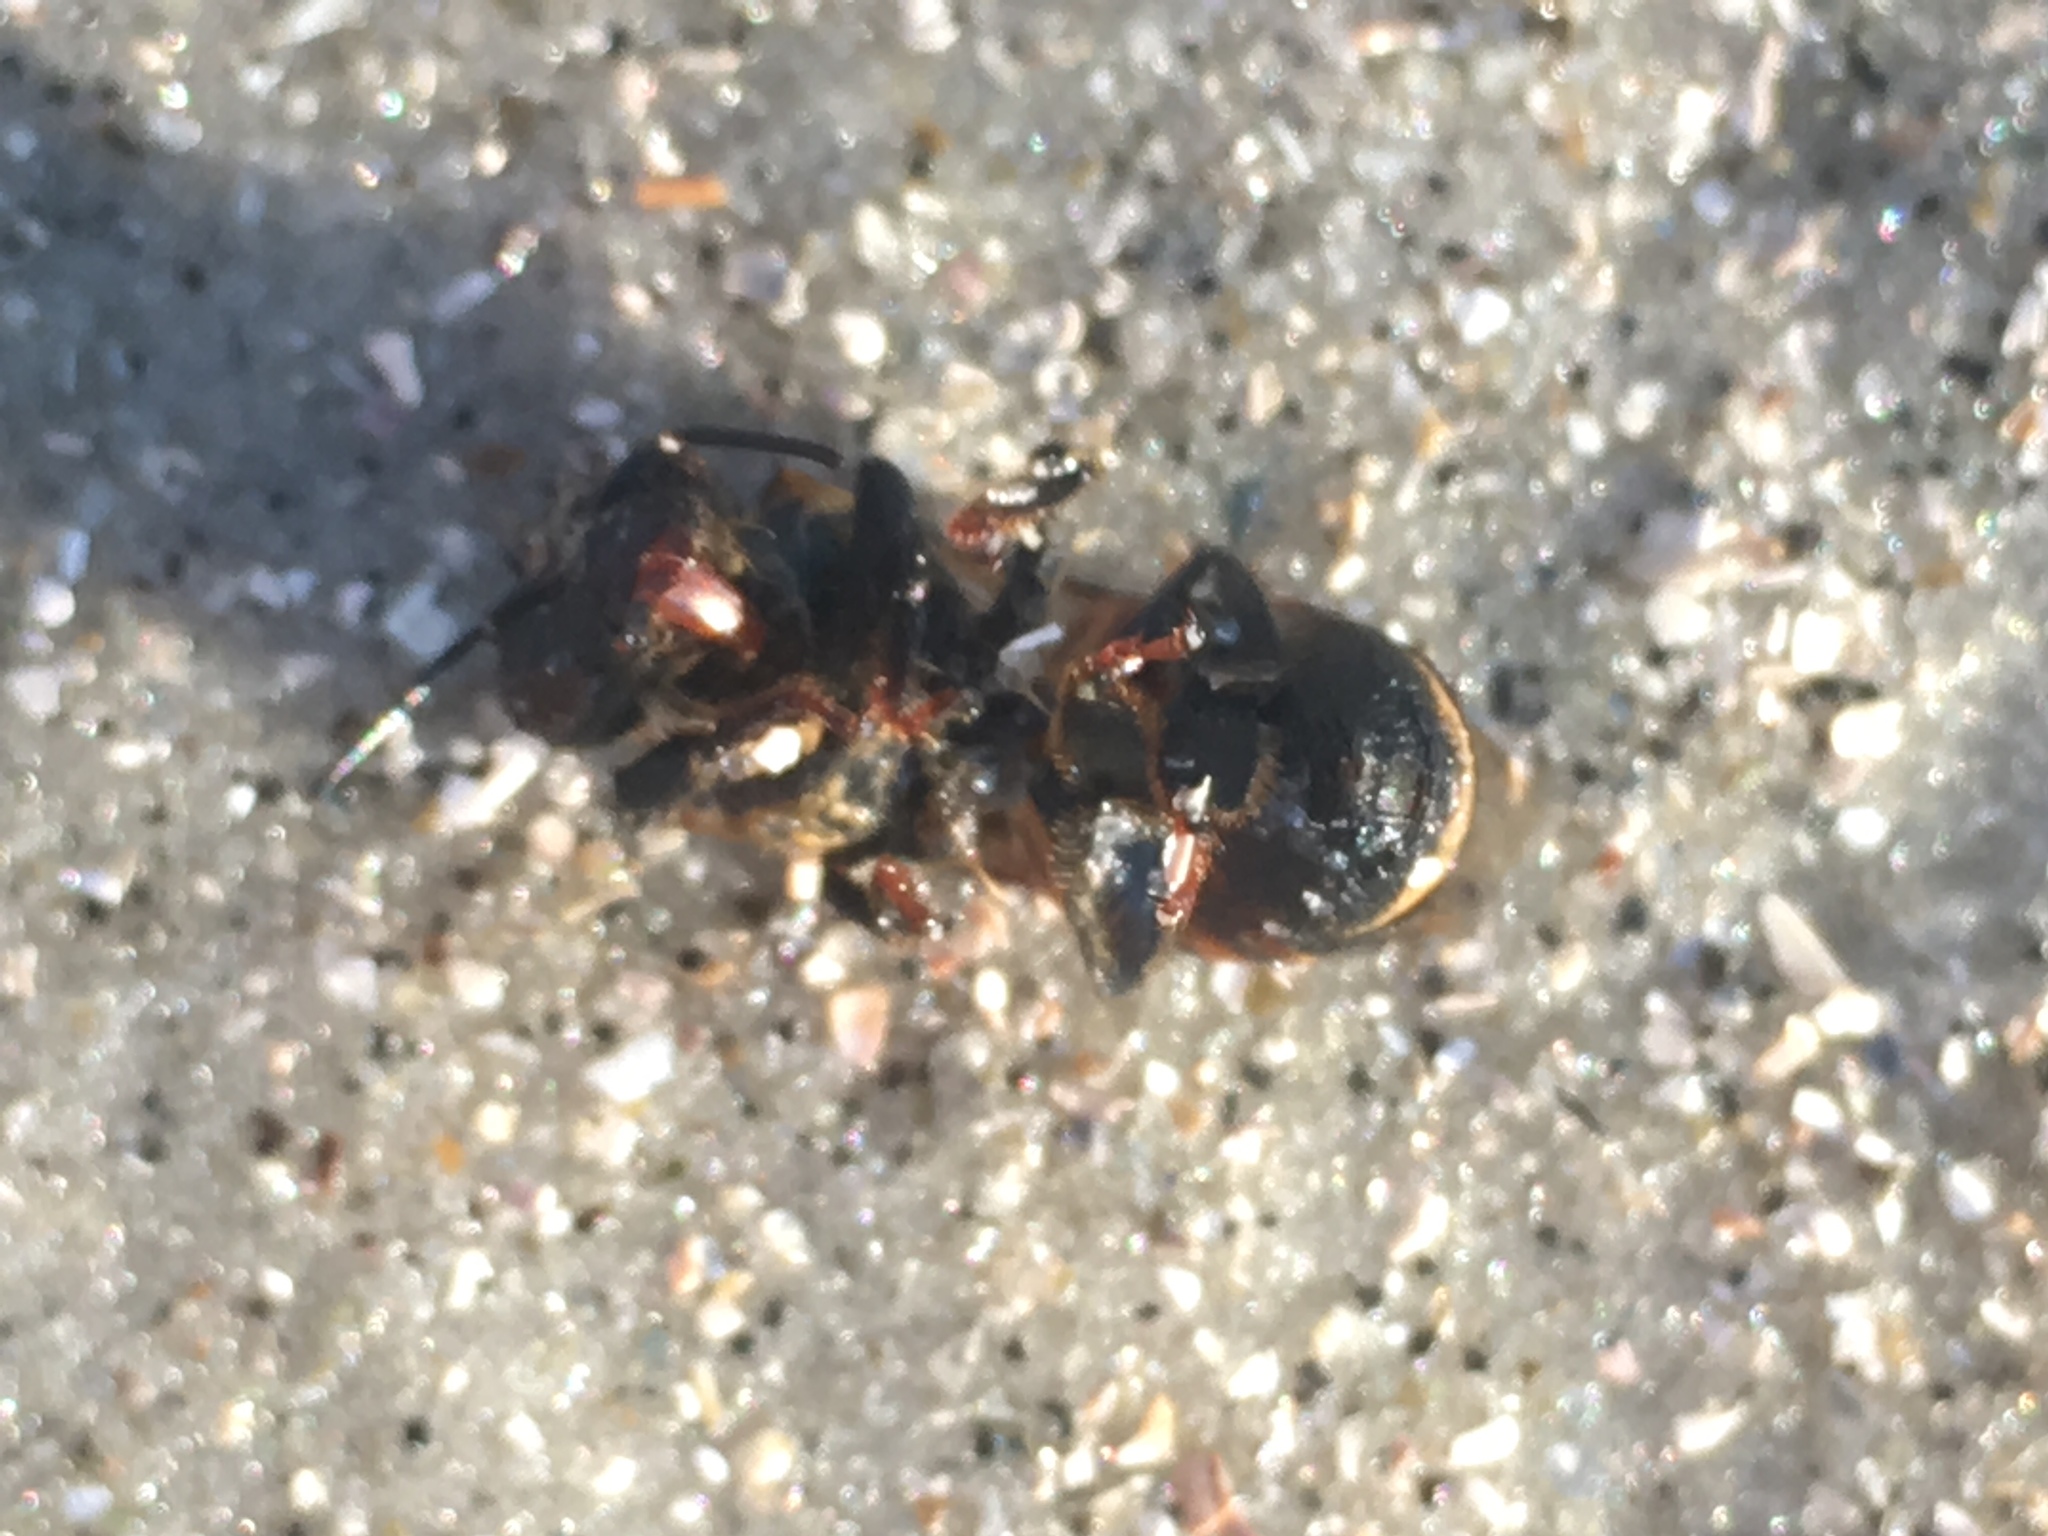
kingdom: Animalia
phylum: Arthropoda
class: Insecta
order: Hymenoptera
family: Apidae
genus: Apis
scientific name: Apis mellifera
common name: Honey bee
